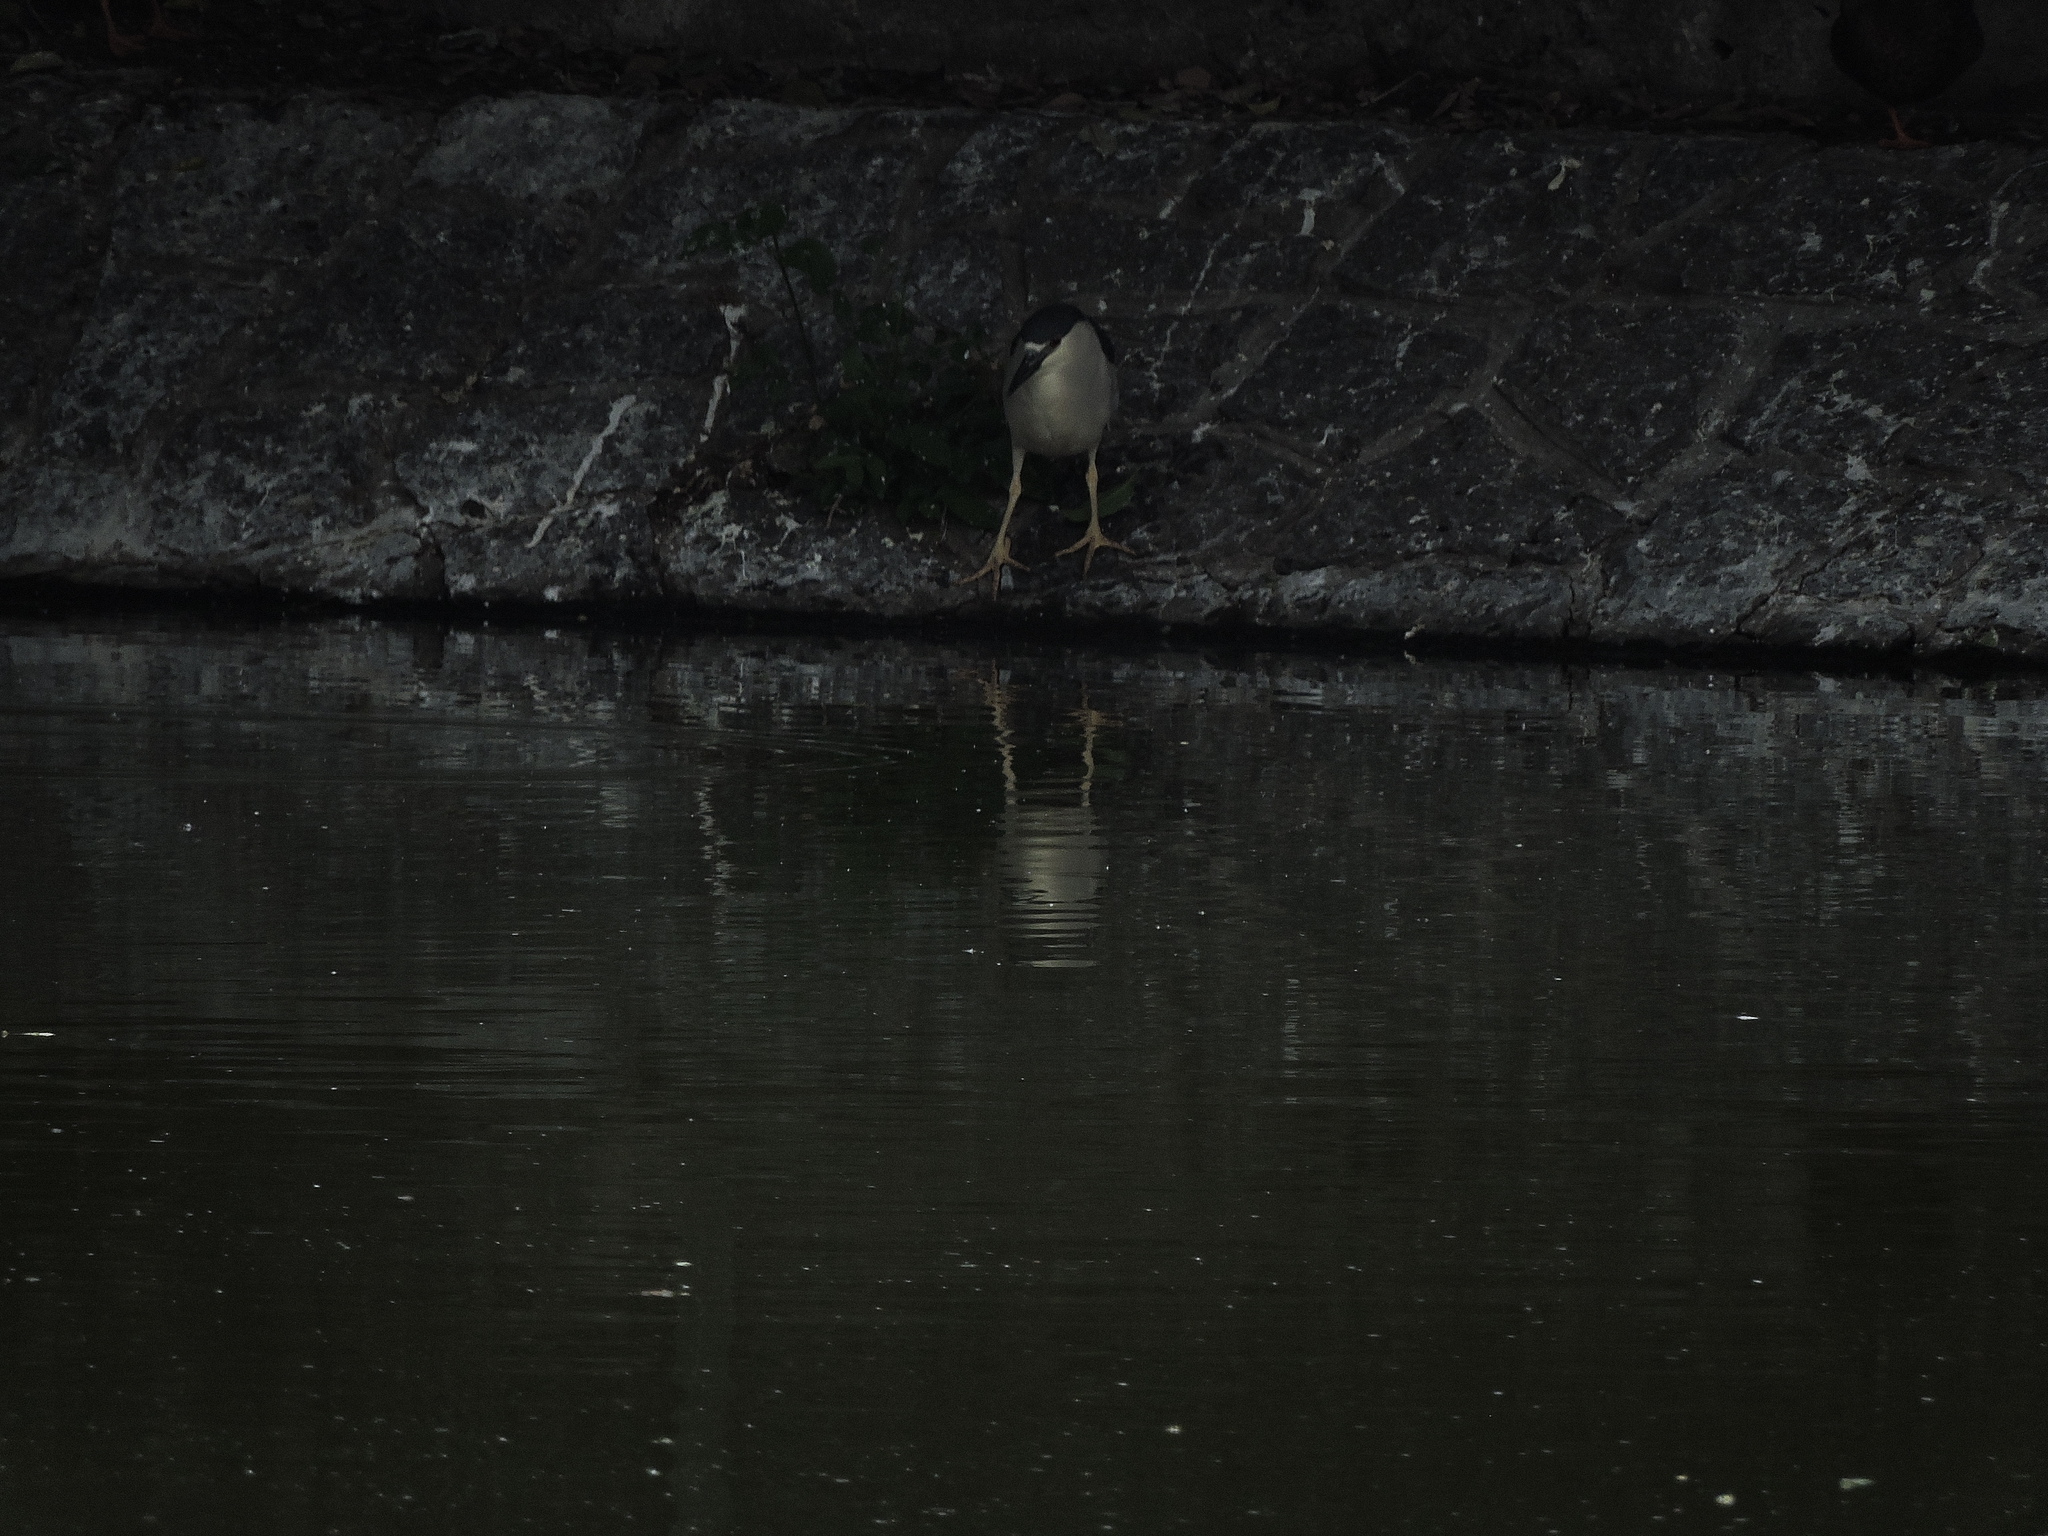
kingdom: Animalia
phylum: Chordata
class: Aves
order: Pelecaniformes
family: Ardeidae
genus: Nycticorax
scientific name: Nycticorax nycticorax
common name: Black-crowned night heron
